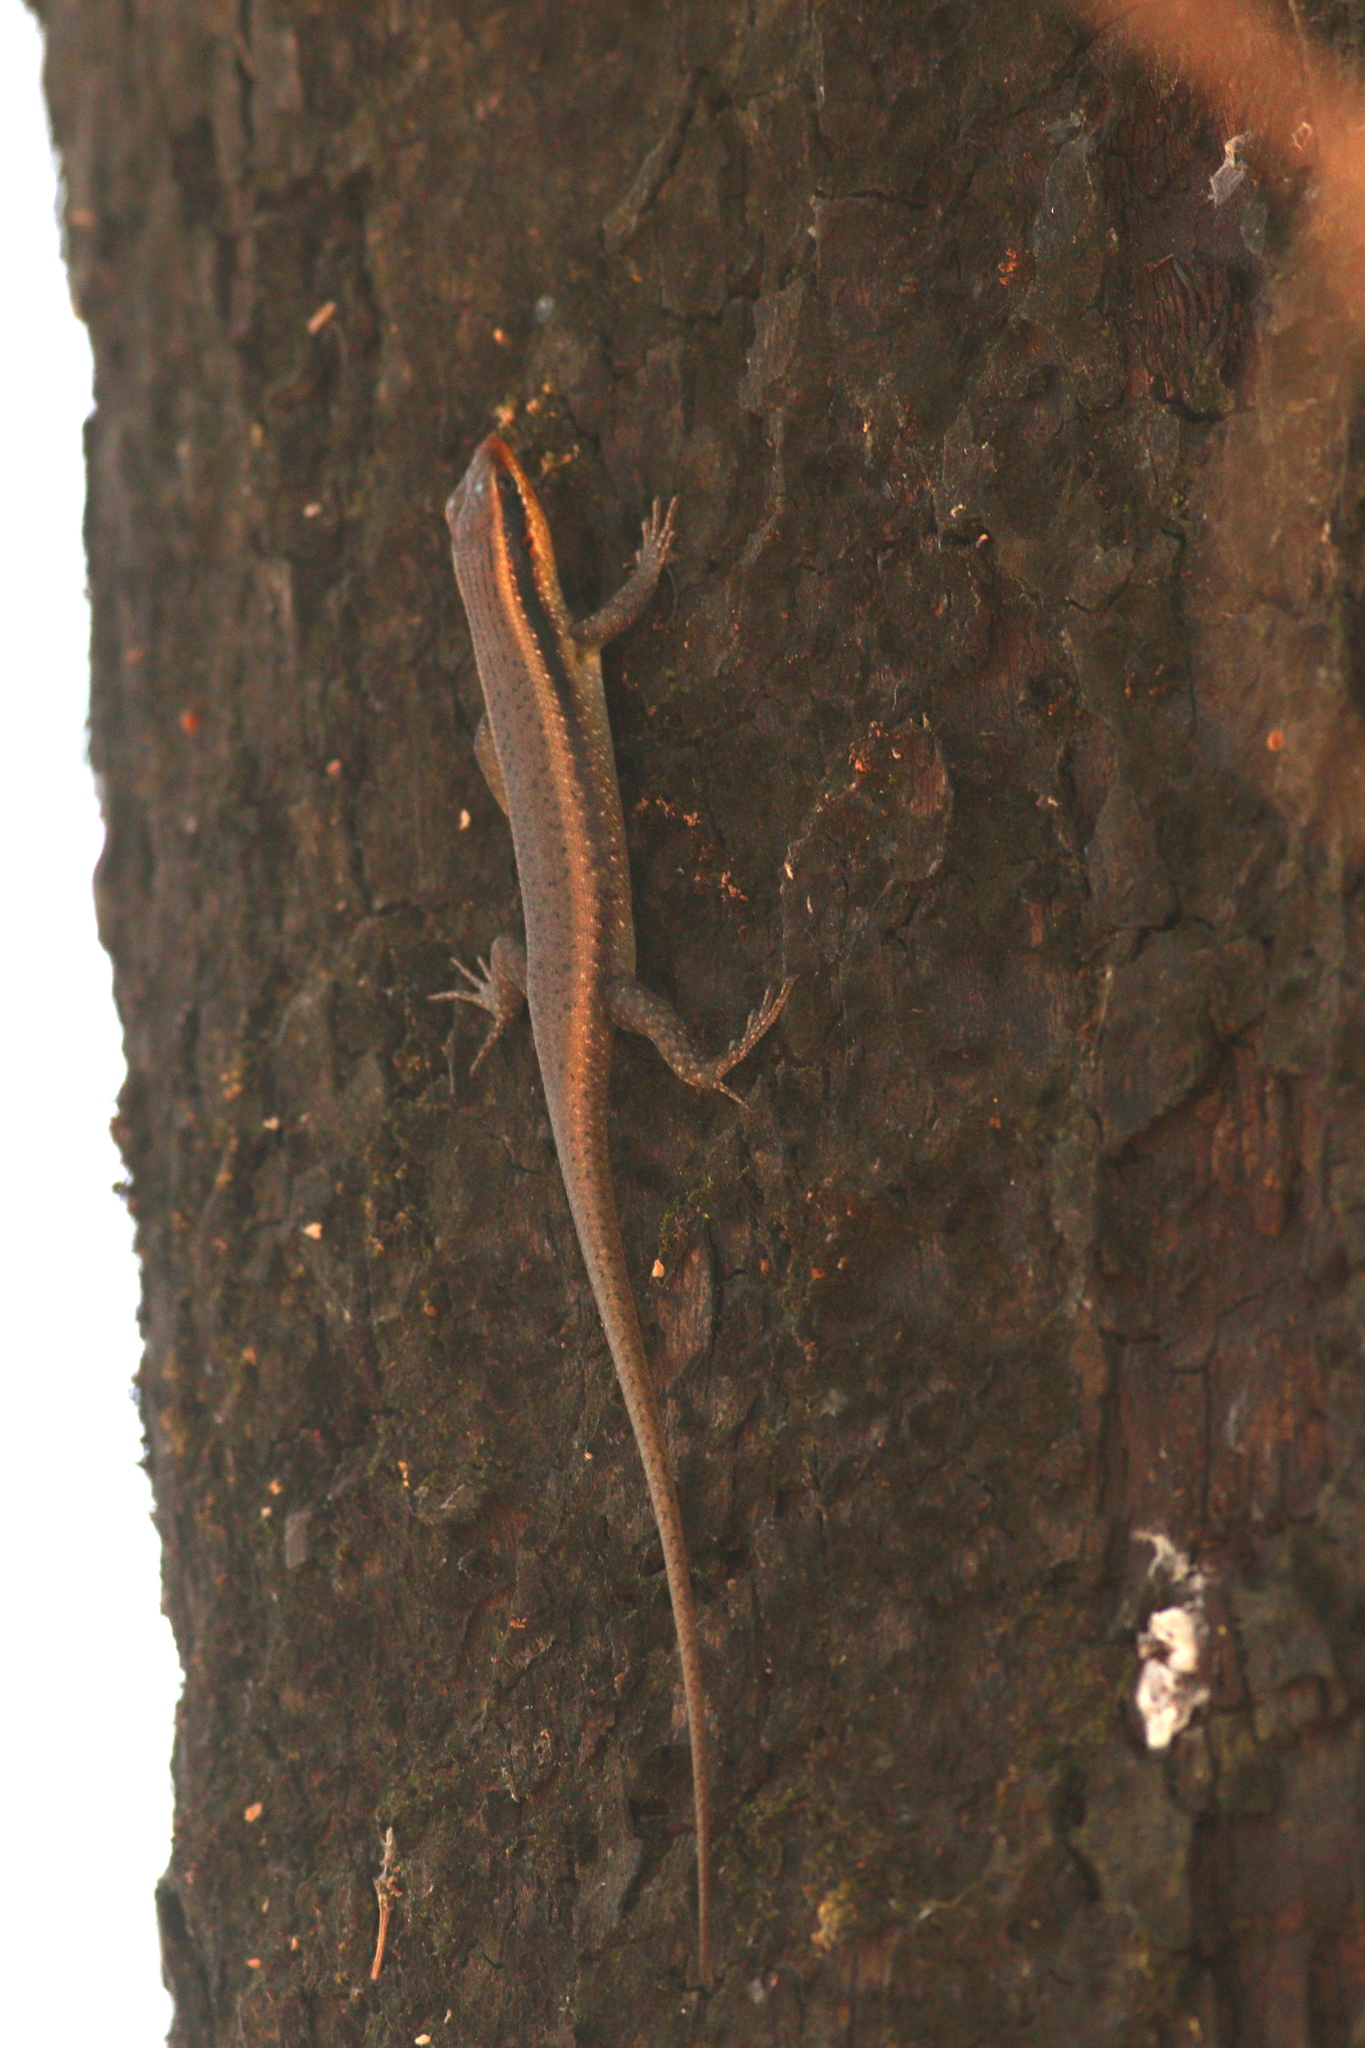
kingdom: Animalia
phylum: Chordata
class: Squamata
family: Scincidae
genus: Trachylepis
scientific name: Trachylepis wahlbergii
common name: Wahlberg’s striped skink
